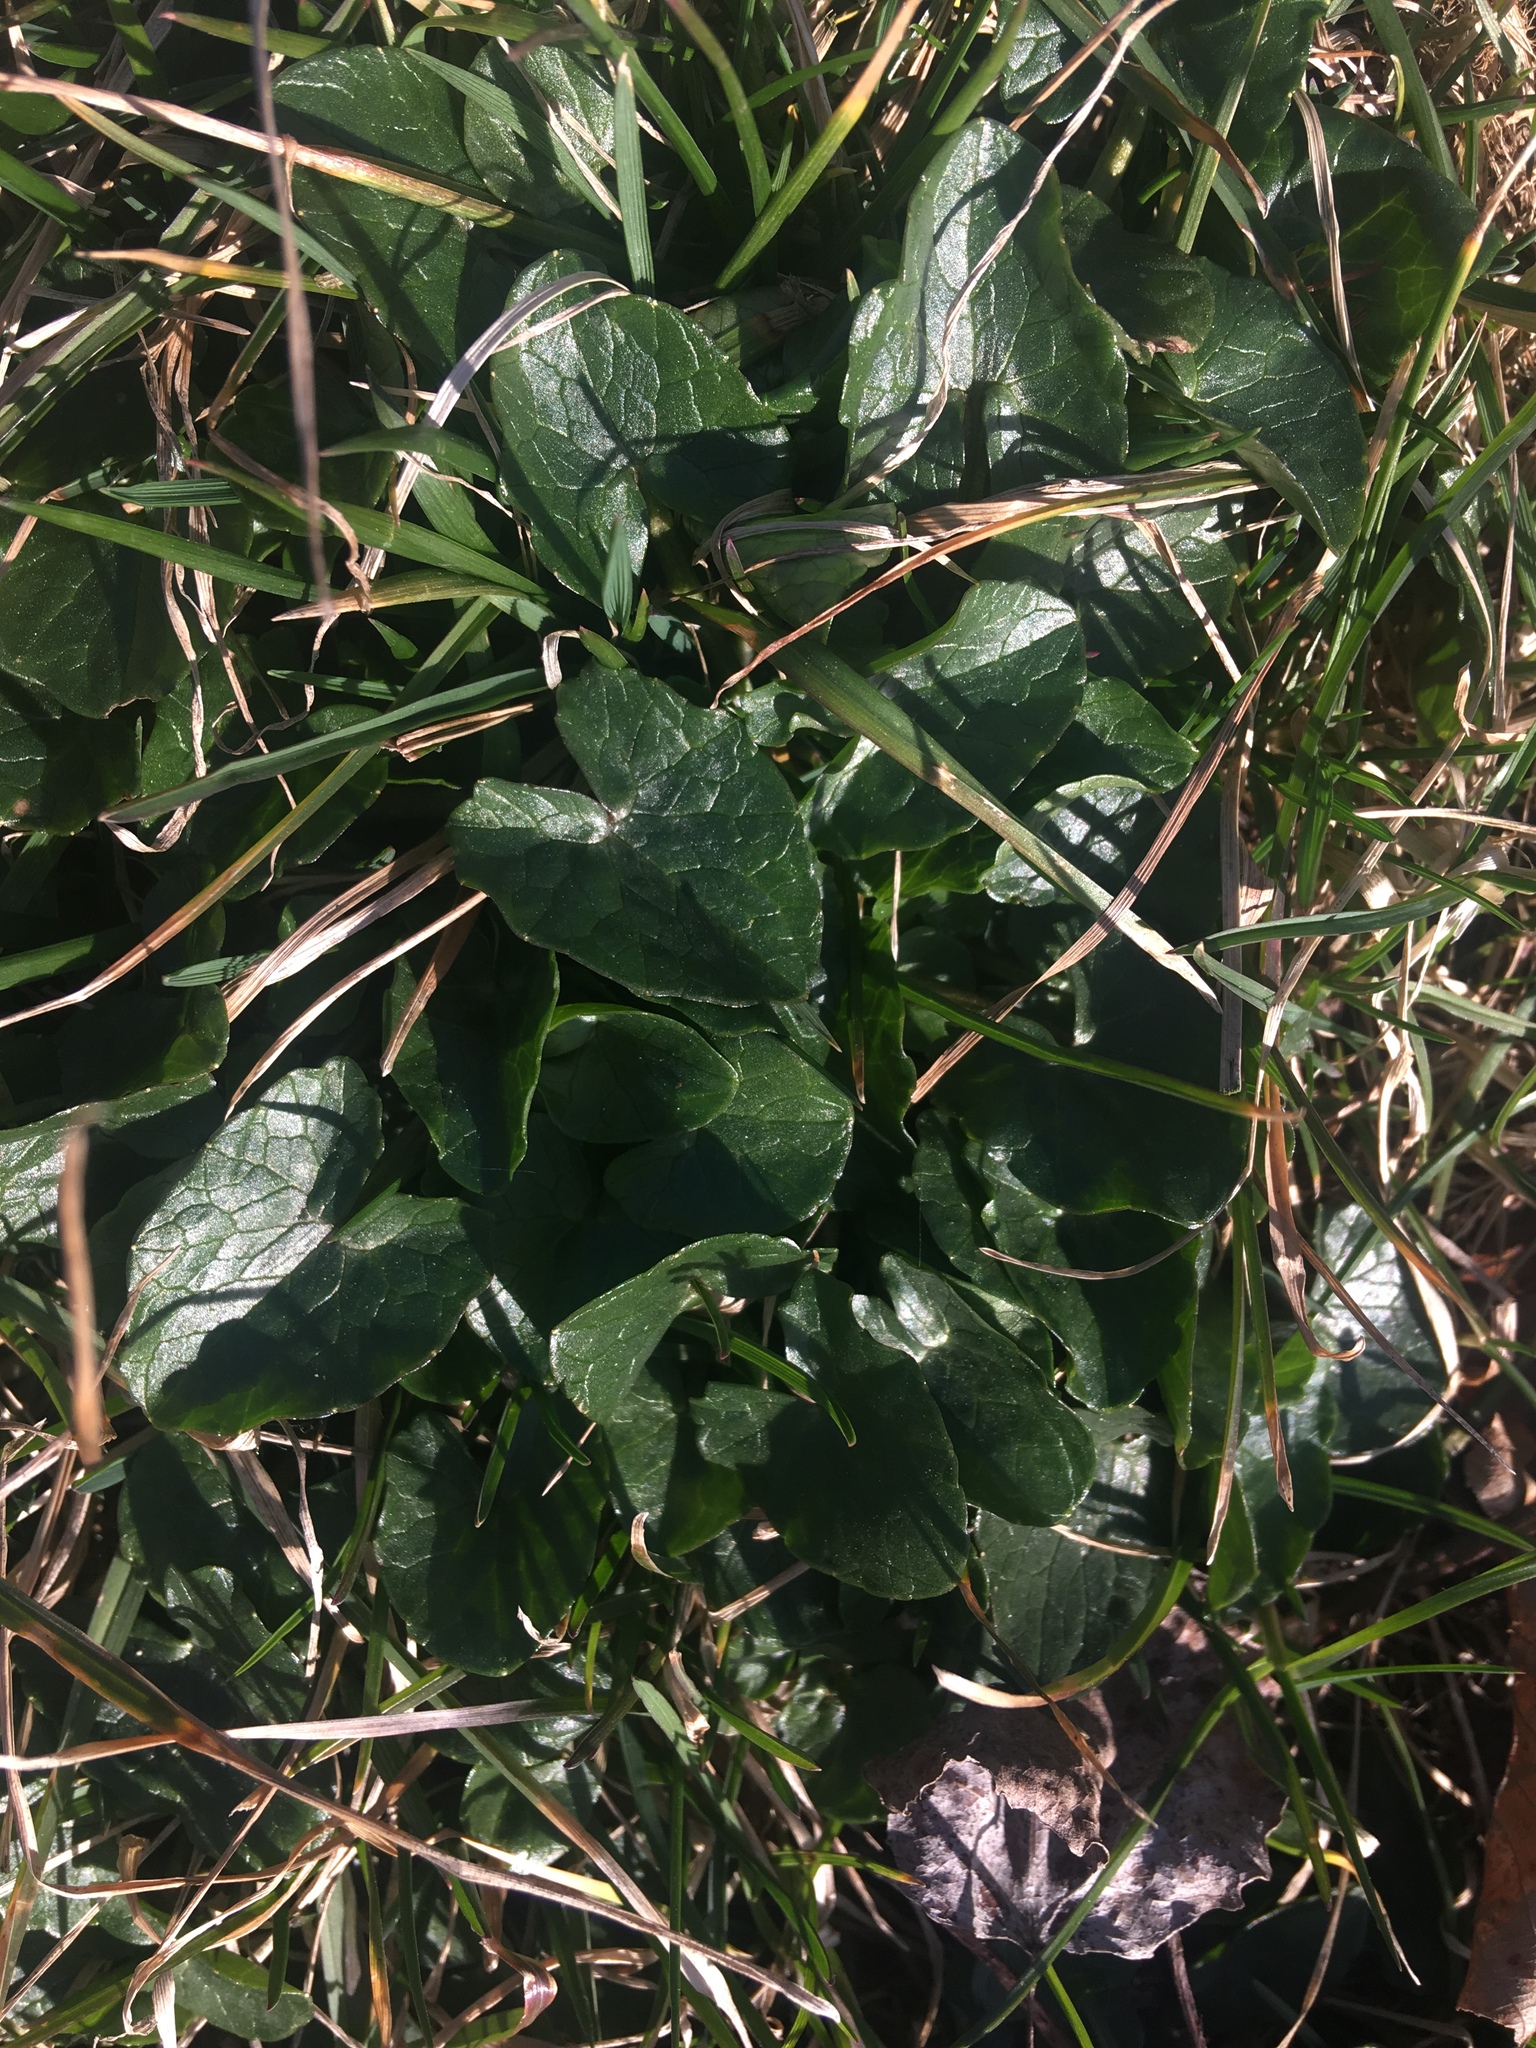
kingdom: Plantae
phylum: Tracheophyta
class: Magnoliopsida
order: Ranunculales
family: Ranunculaceae
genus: Ficaria
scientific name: Ficaria verna
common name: Lesser celandine
